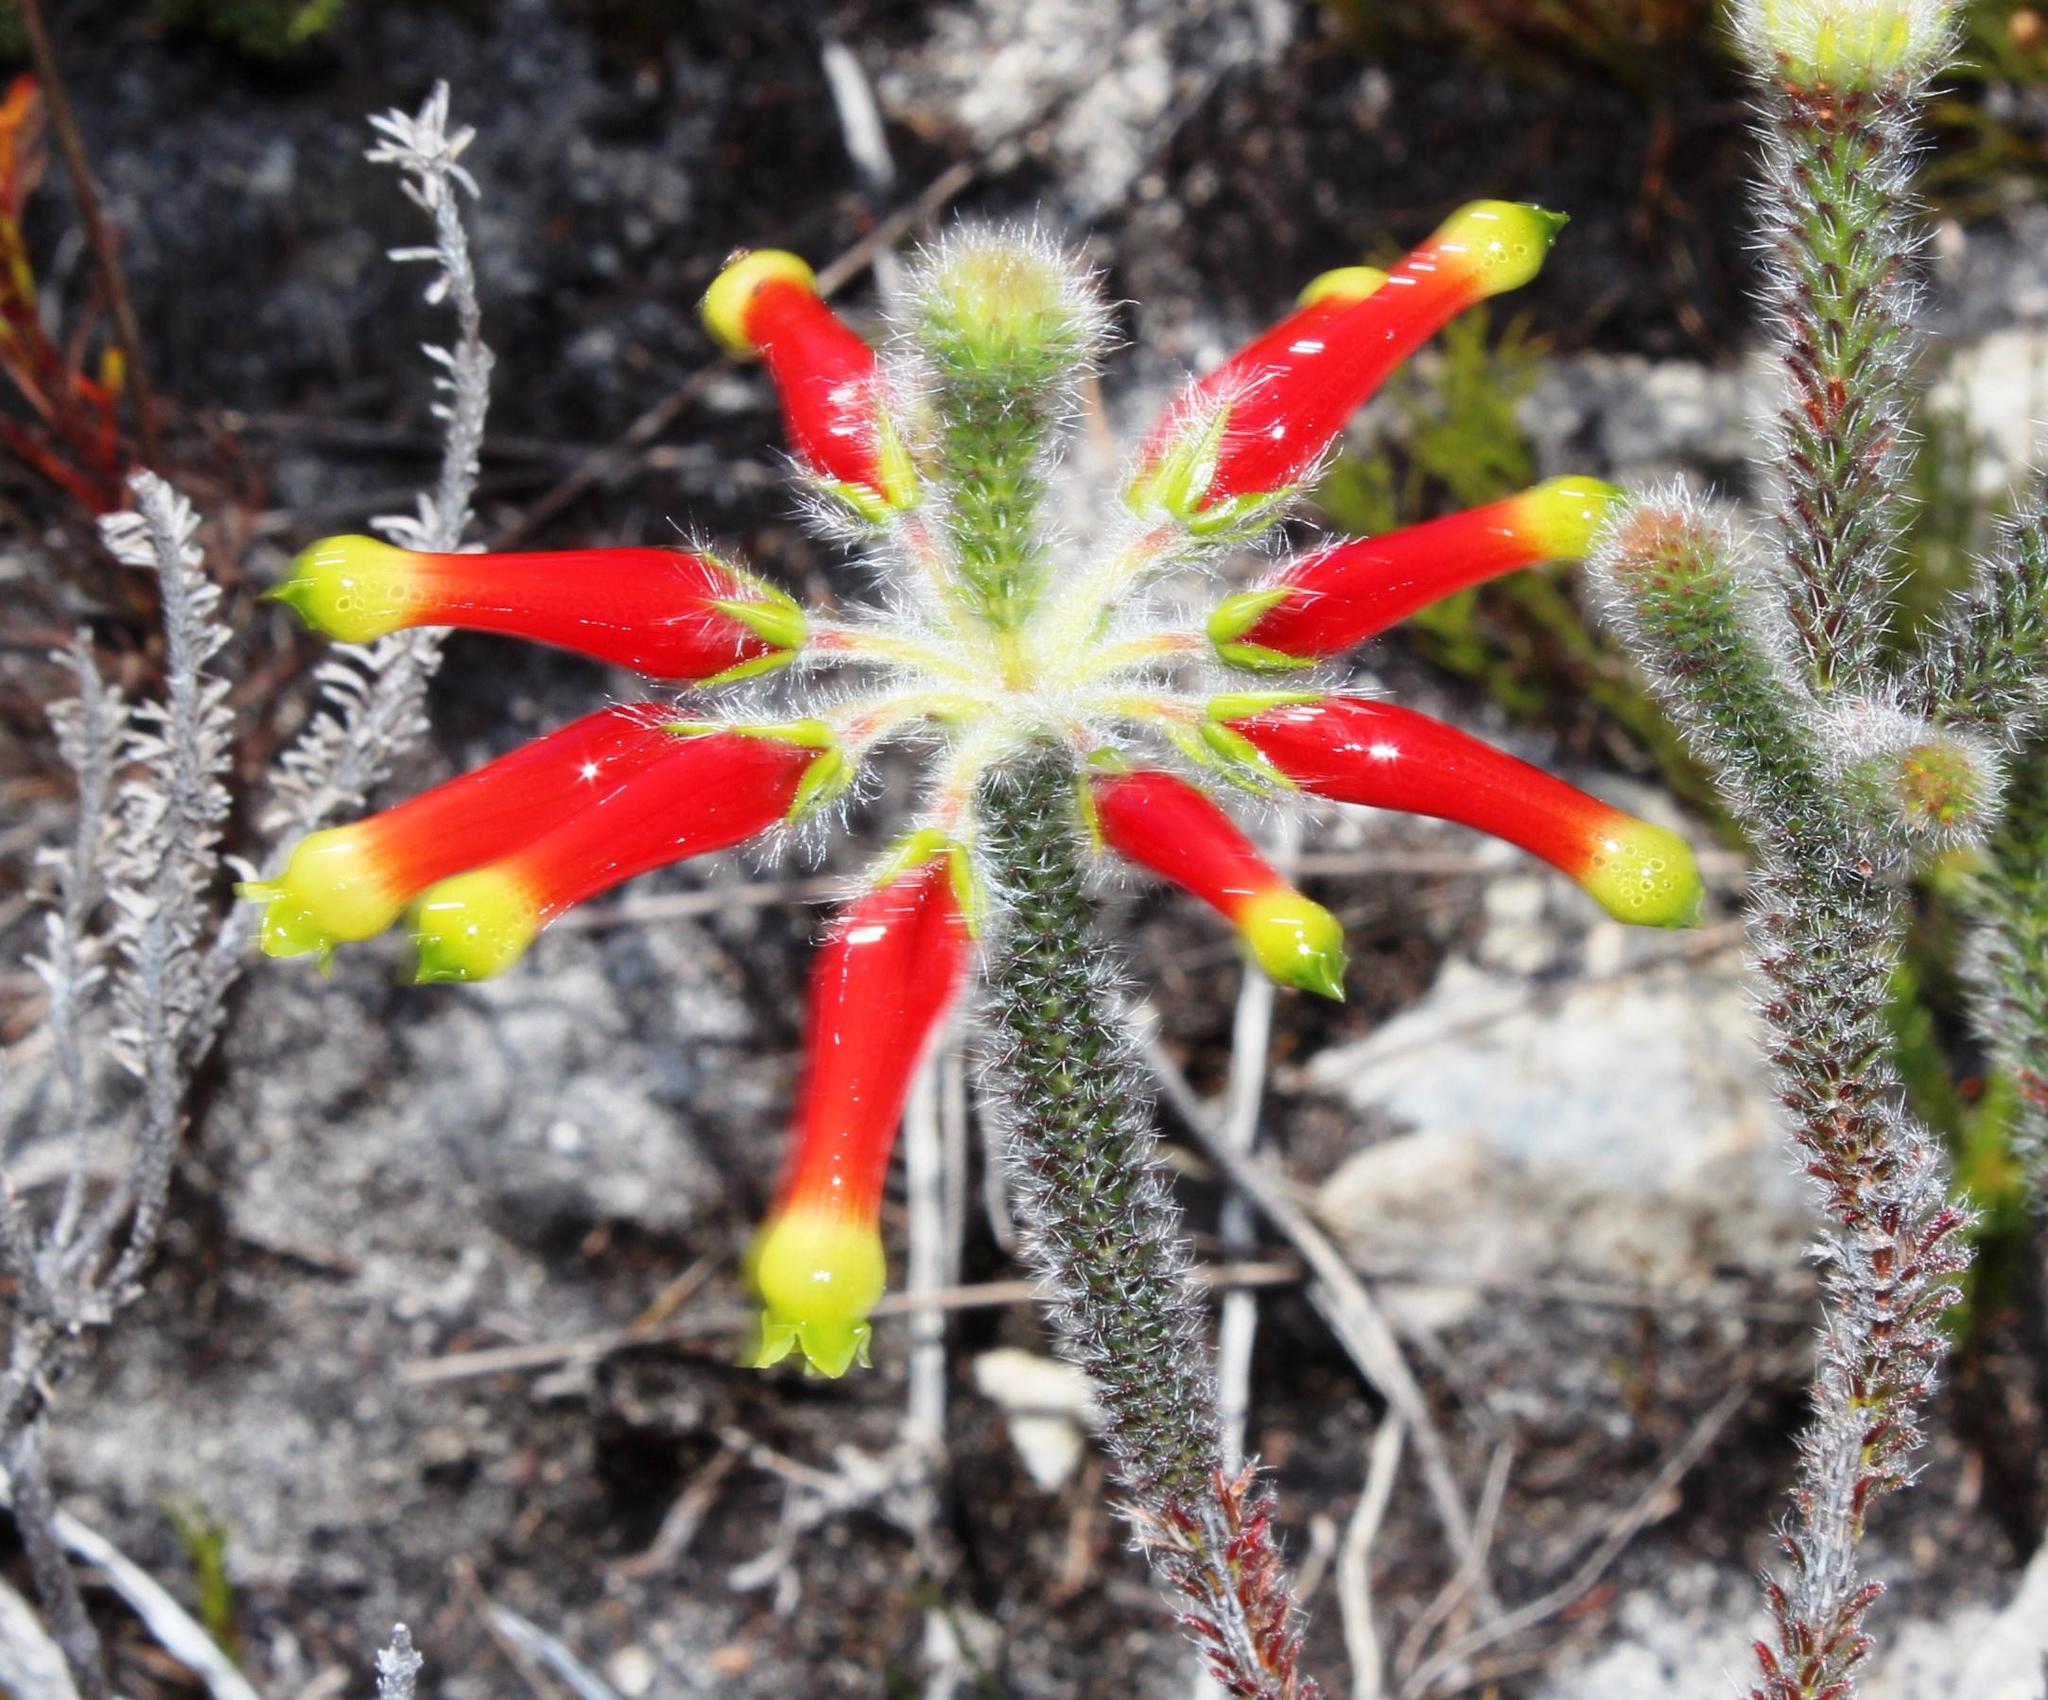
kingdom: Plantae
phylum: Tracheophyta
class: Magnoliopsida
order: Ericales
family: Ericaceae
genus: Erica
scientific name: Erica massonii
